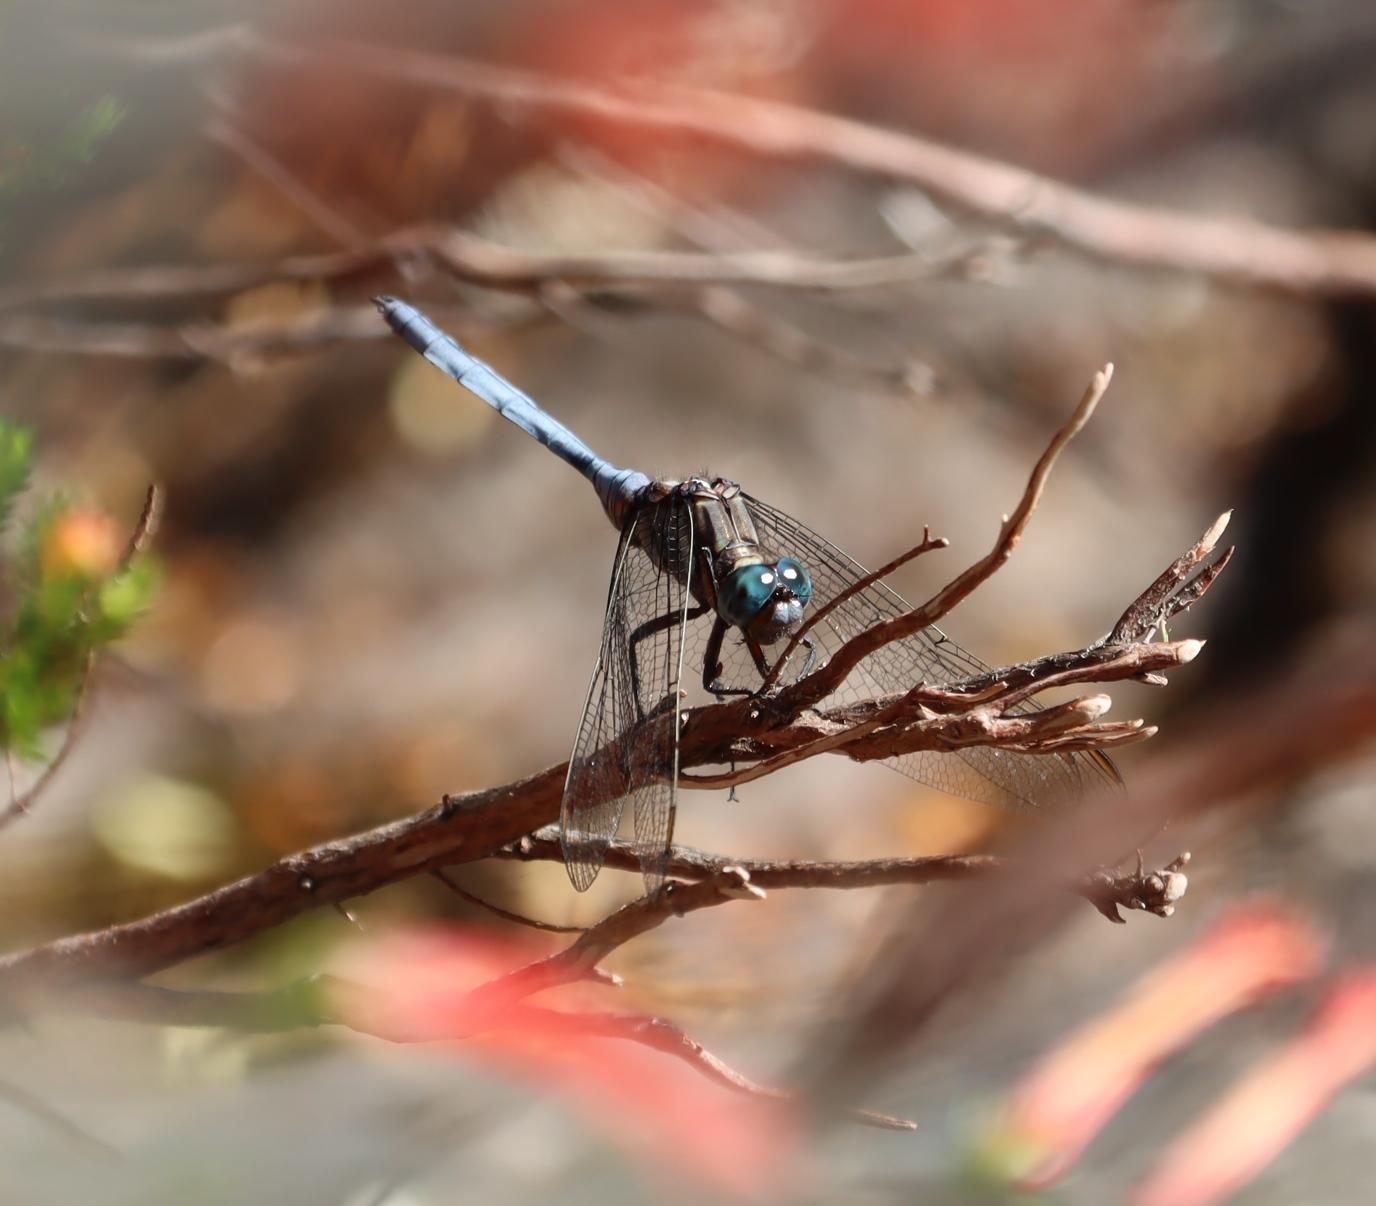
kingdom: Animalia
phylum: Arthropoda
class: Insecta
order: Odonata
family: Libellulidae
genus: Orthetrum
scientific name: Orthetrum julia
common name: Julia skimmer
